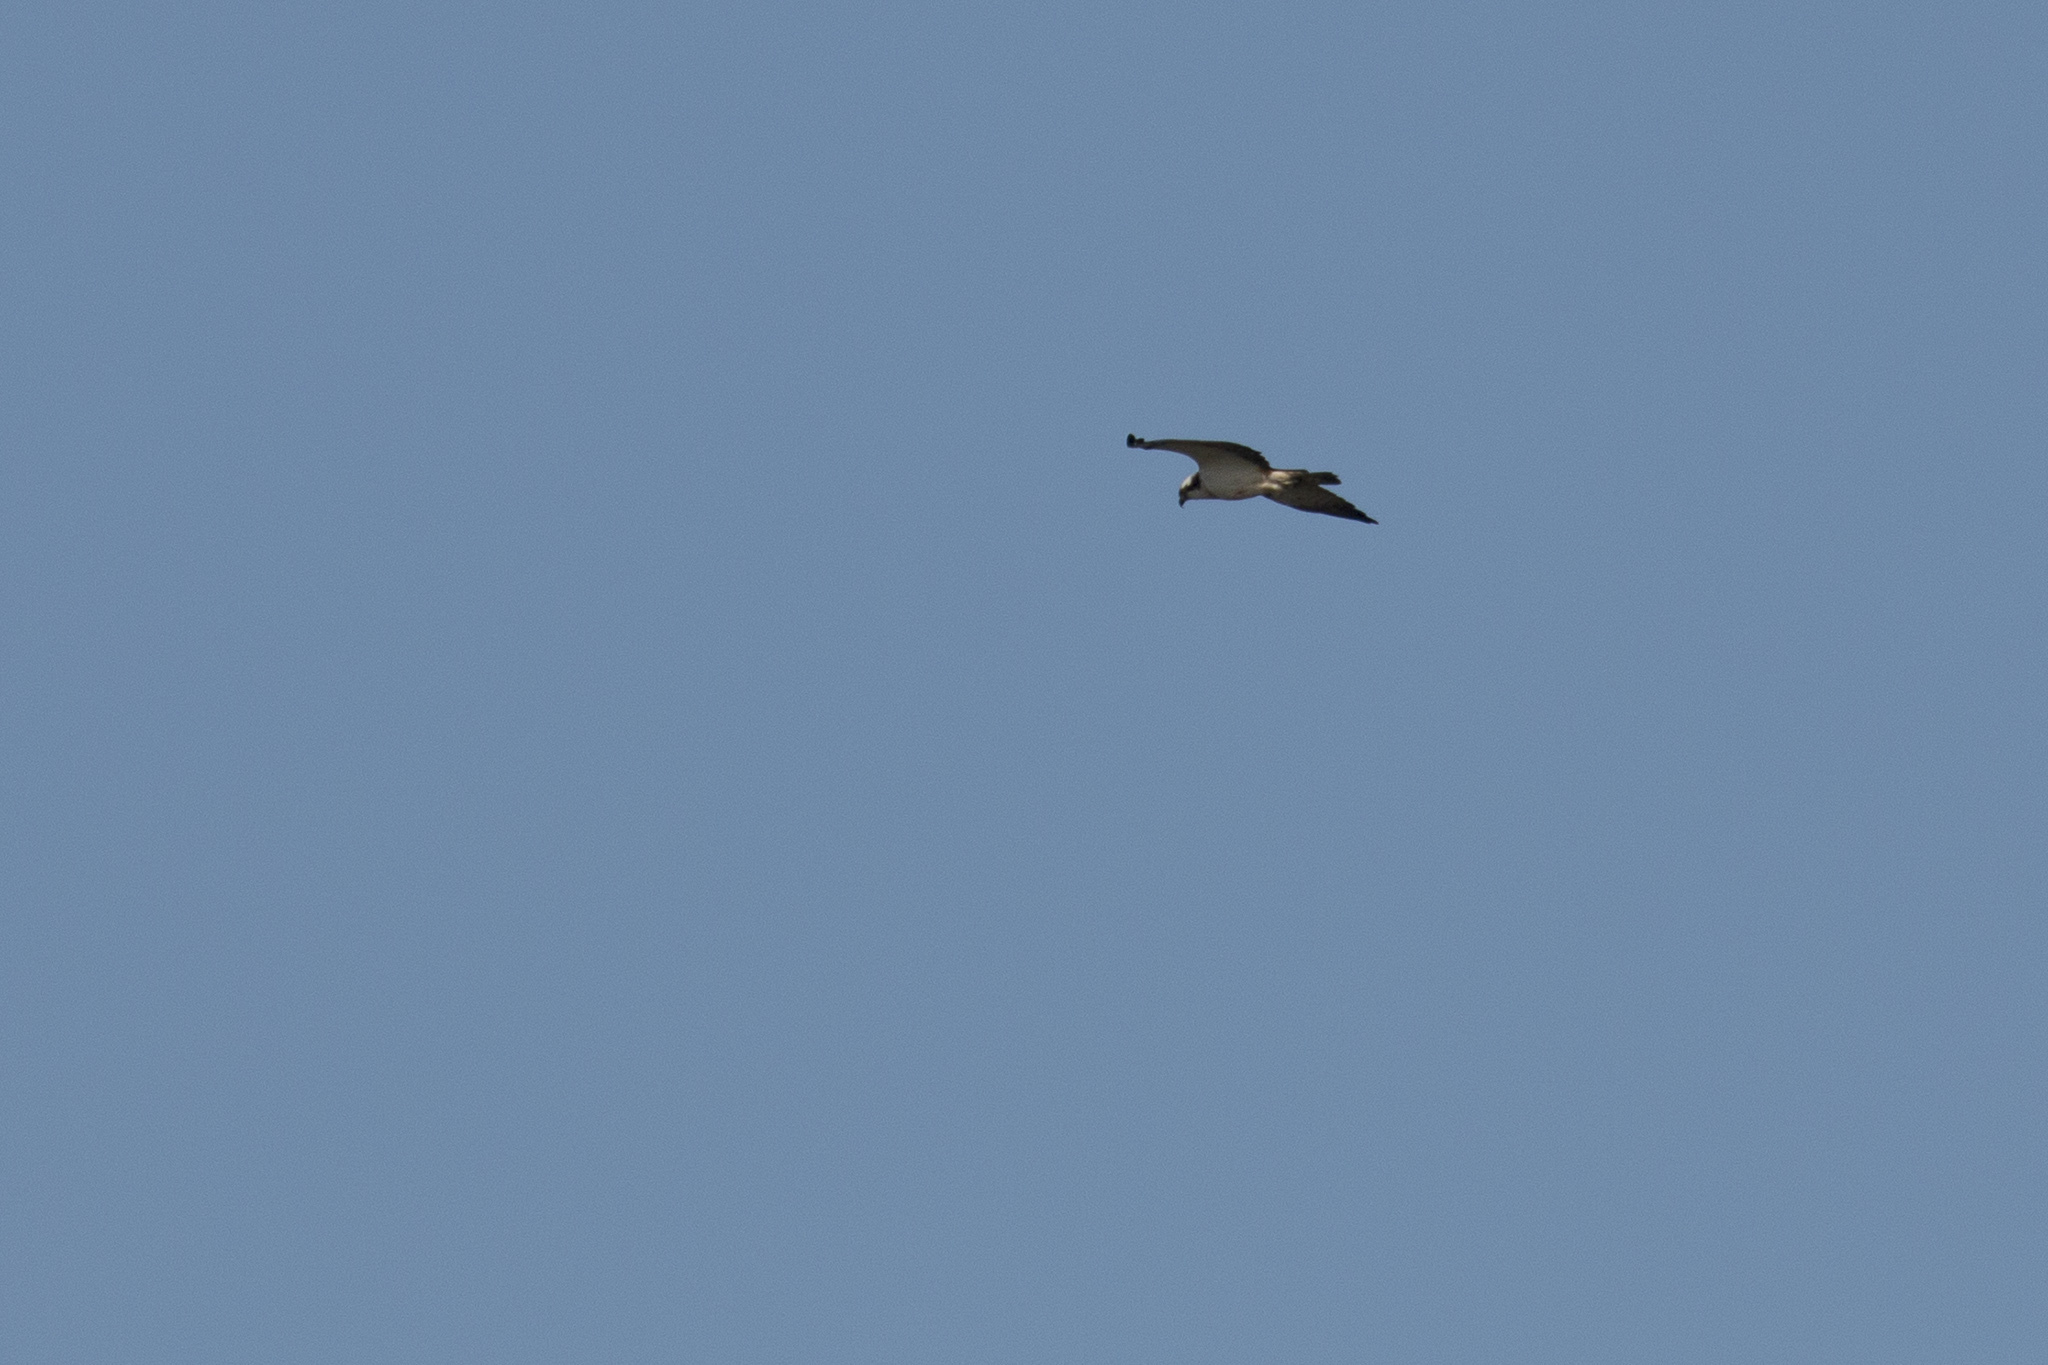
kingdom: Animalia
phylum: Chordata
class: Aves
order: Accipitriformes
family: Pandionidae
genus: Pandion
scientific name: Pandion haliaetus
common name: Osprey
